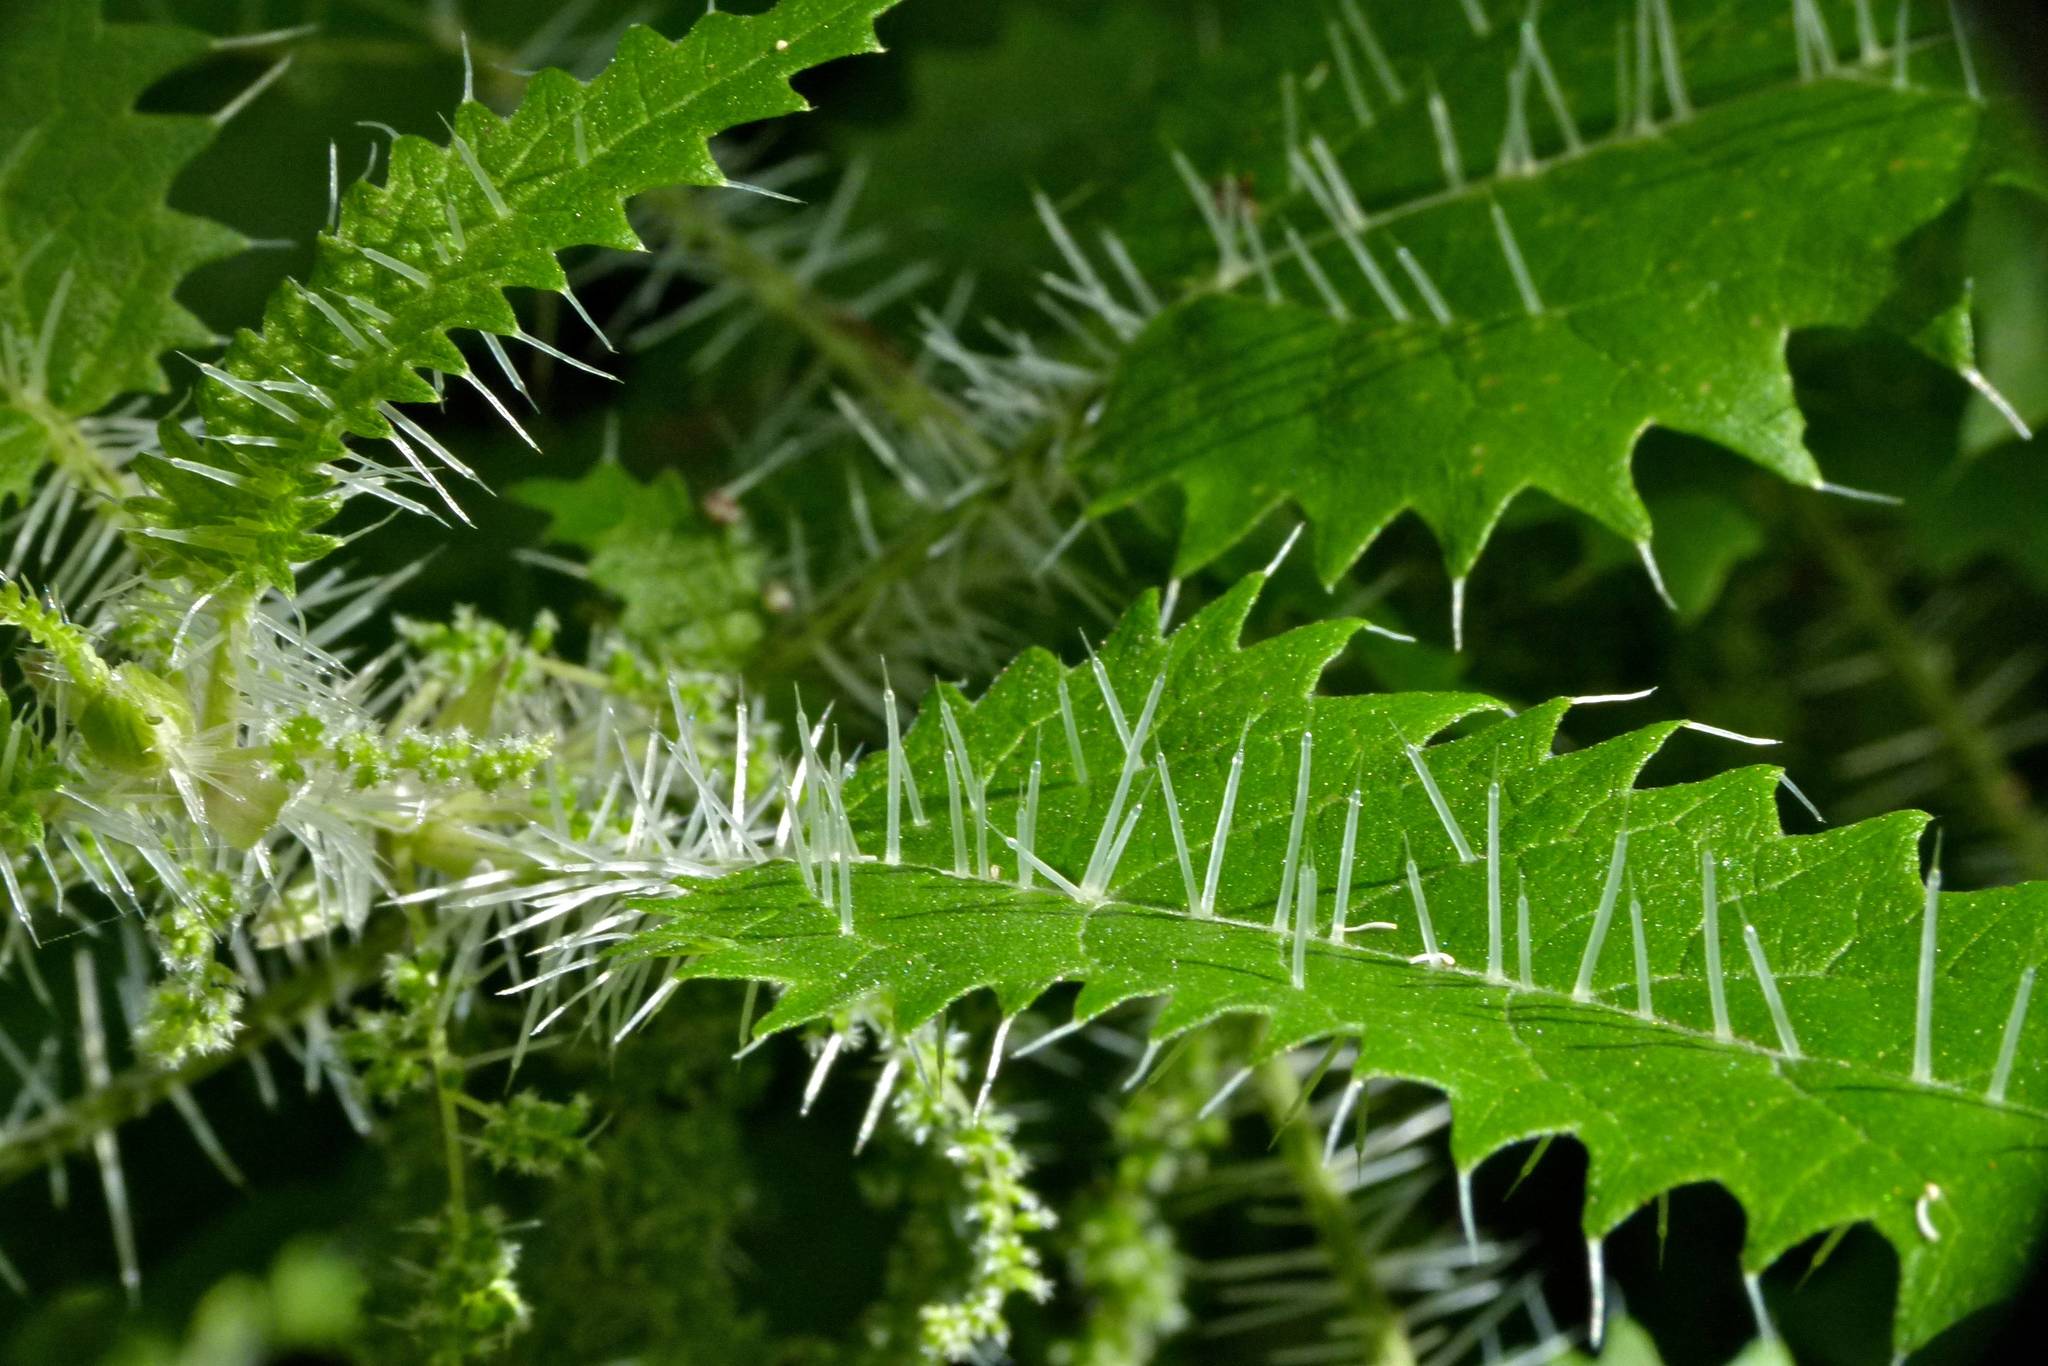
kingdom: Plantae
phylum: Tracheophyta
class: Magnoliopsida
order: Rosales
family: Urticaceae
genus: Urtica
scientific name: Urtica ferox
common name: Tree nettle
